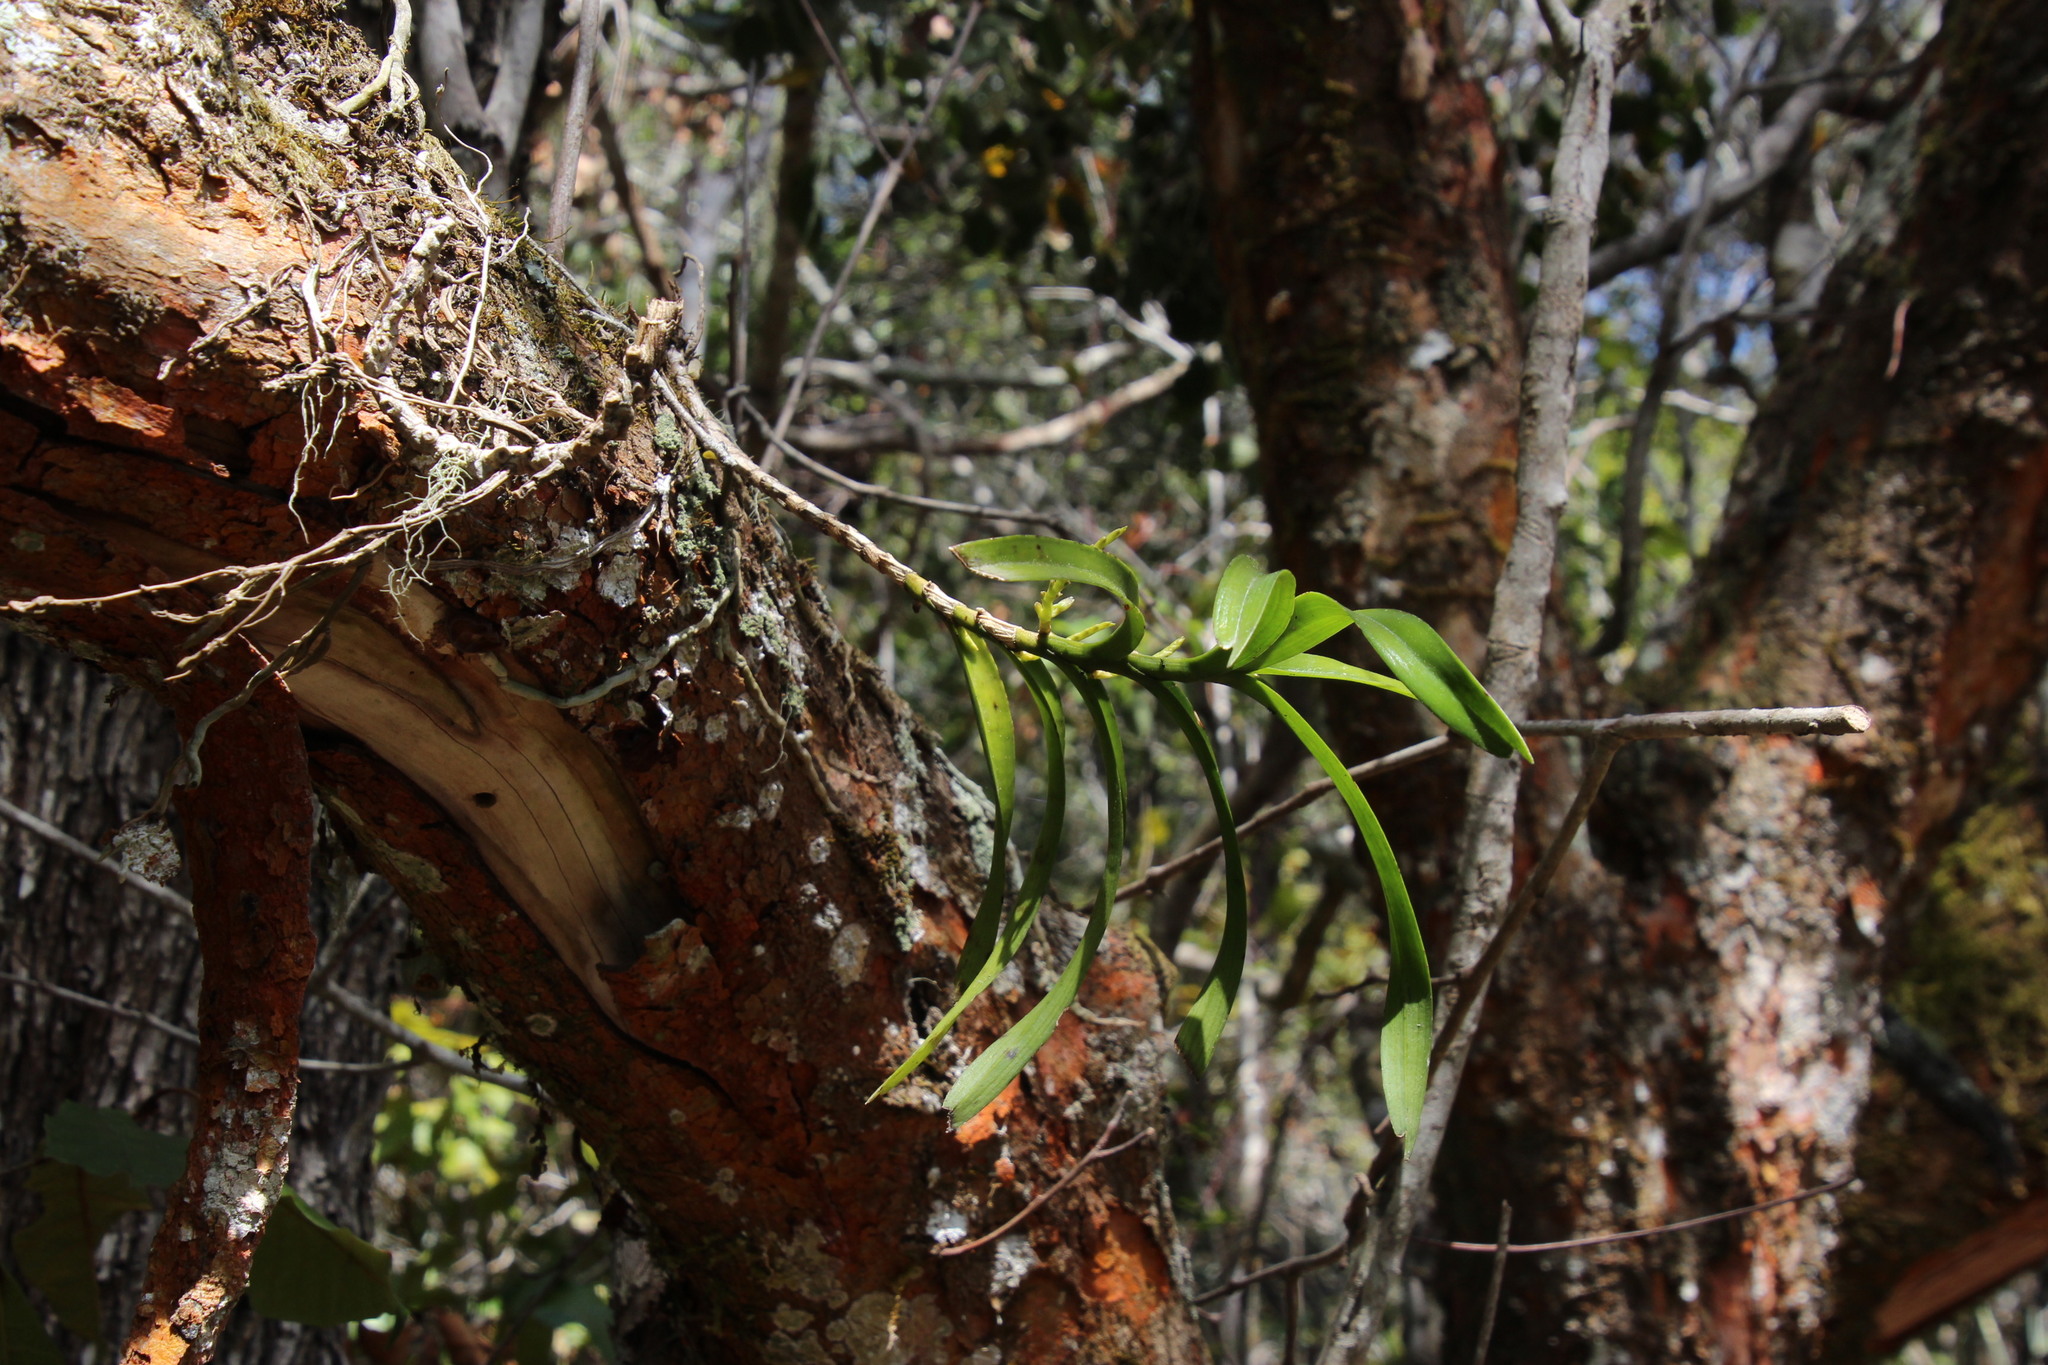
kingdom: Plantae
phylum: Tracheophyta
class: Liliopsida
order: Asparagales
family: Orchidaceae
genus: Tridactyle
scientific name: Tridactyle bicaudata
